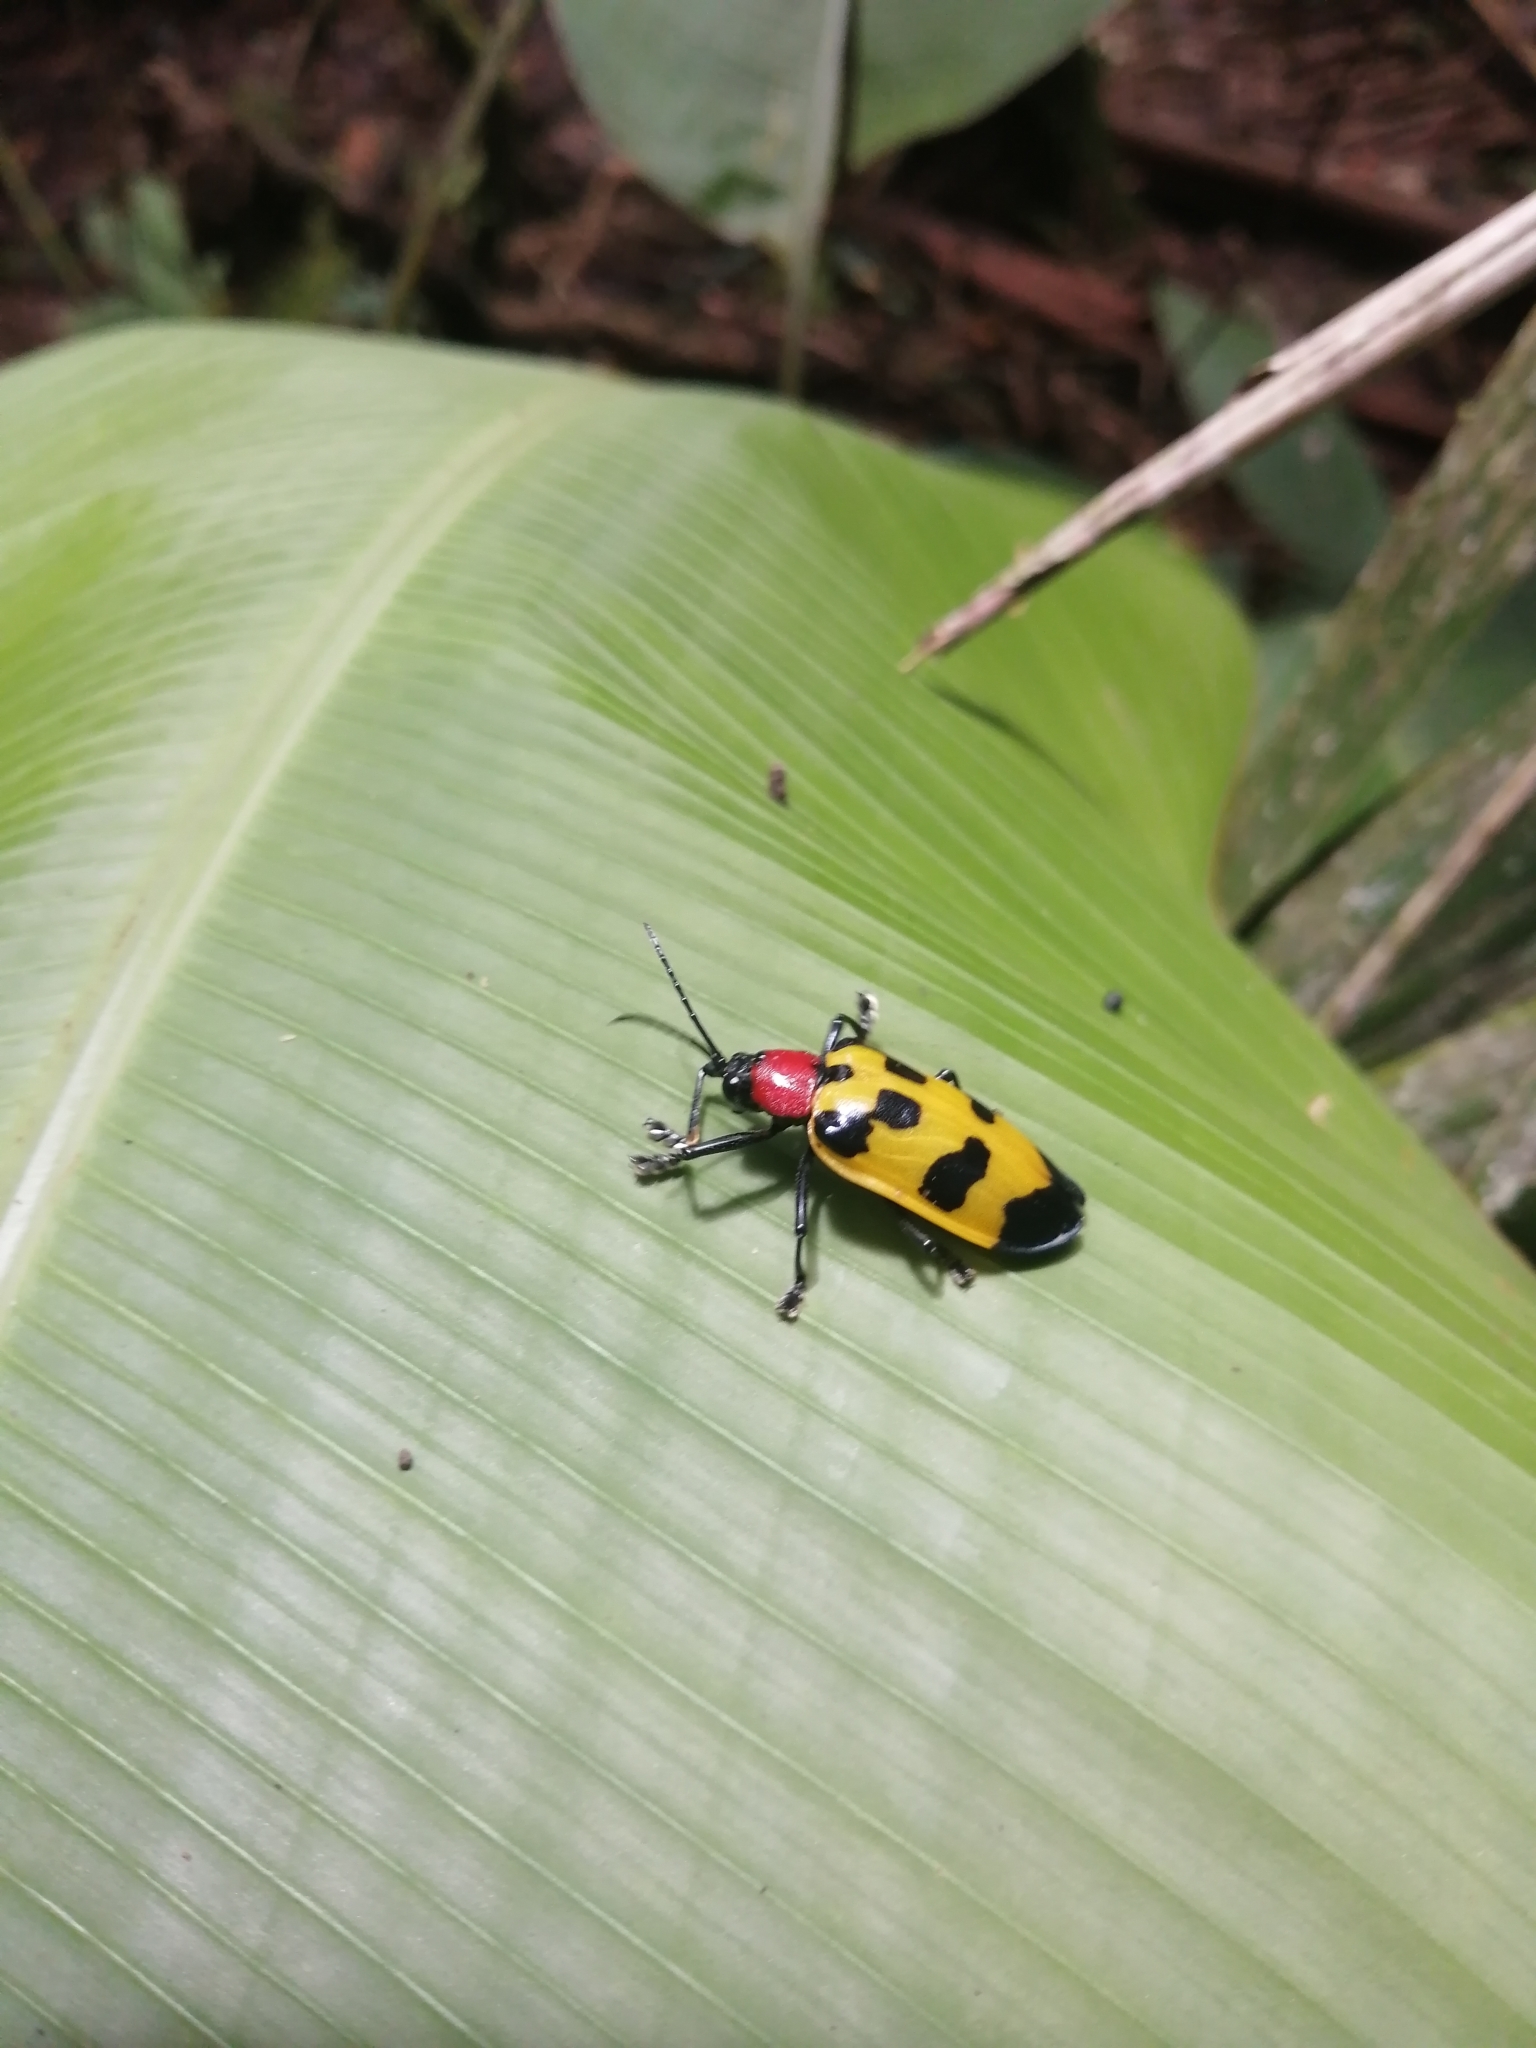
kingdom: Animalia
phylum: Arthropoda
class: Insecta
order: Coleoptera
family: Chrysomelidae
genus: Alurnus
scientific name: Alurnus ornatus
